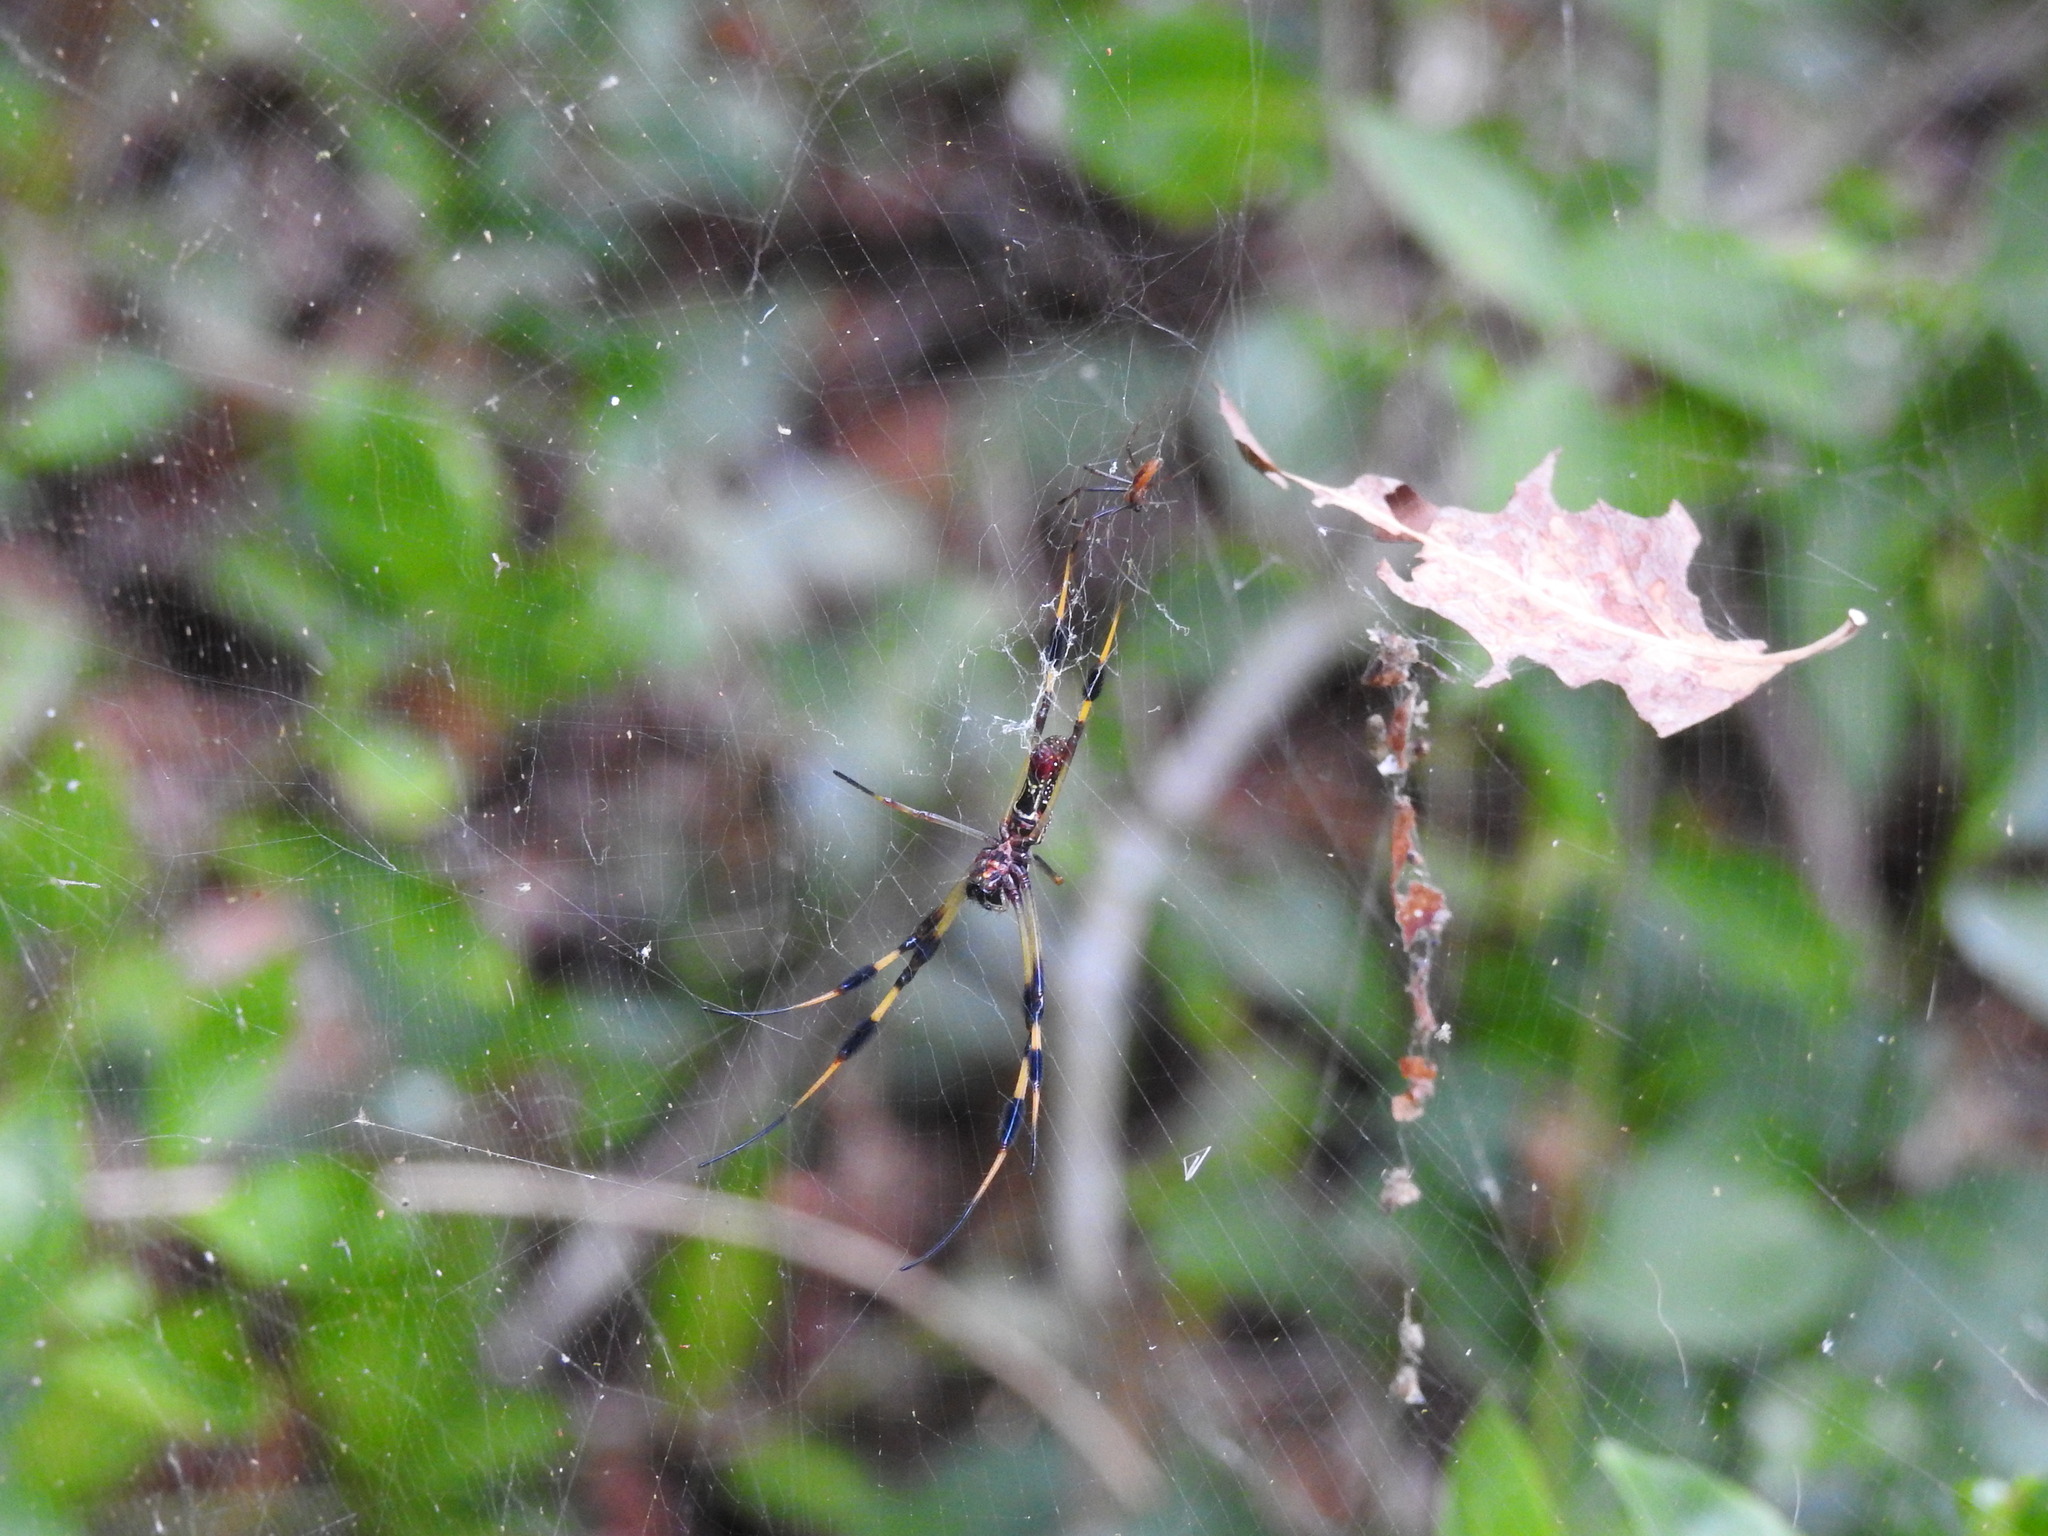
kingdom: Animalia
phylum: Arthropoda
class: Arachnida
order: Araneae
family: Araneidae
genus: Trichonephila
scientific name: Trichonephila clavipes
